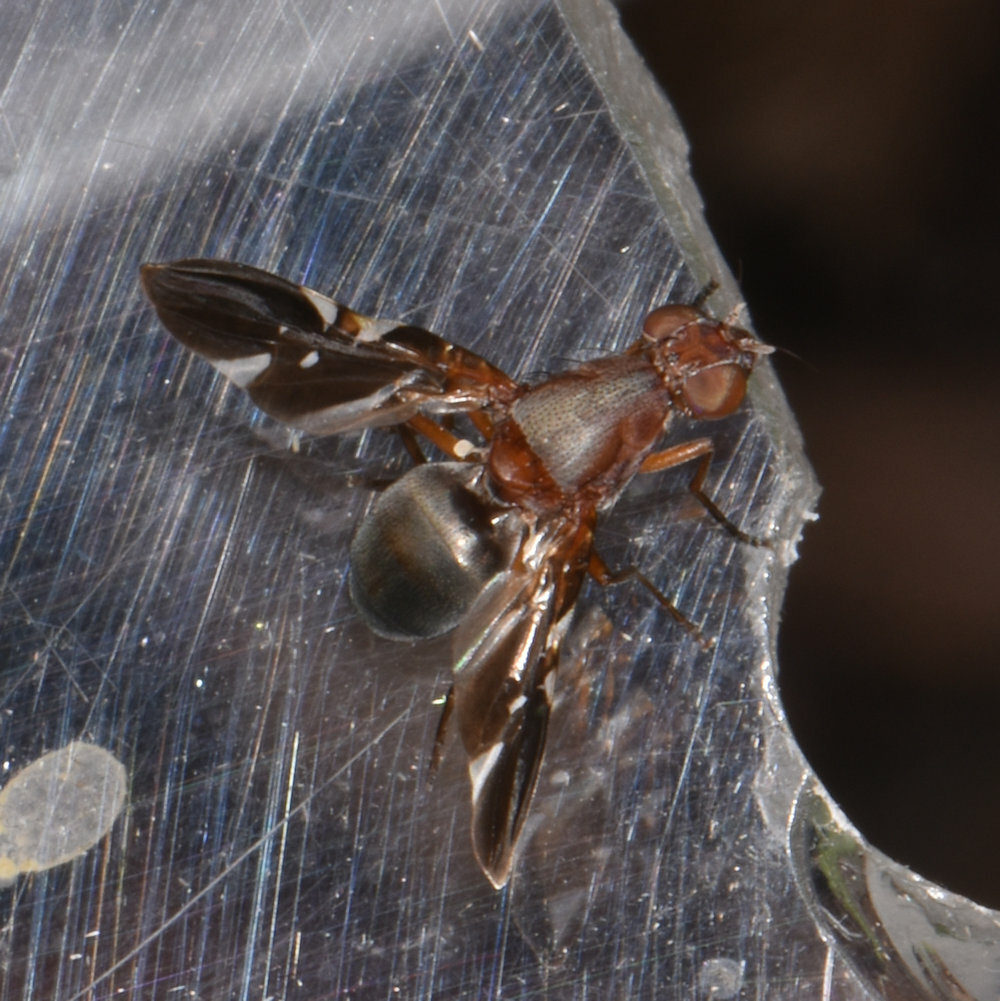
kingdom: Animalia
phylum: Arthropoda
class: Insecta
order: Diptera
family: Ulidiidae
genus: Delphinia
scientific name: Delphinia picta
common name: Common picture-winged fly
